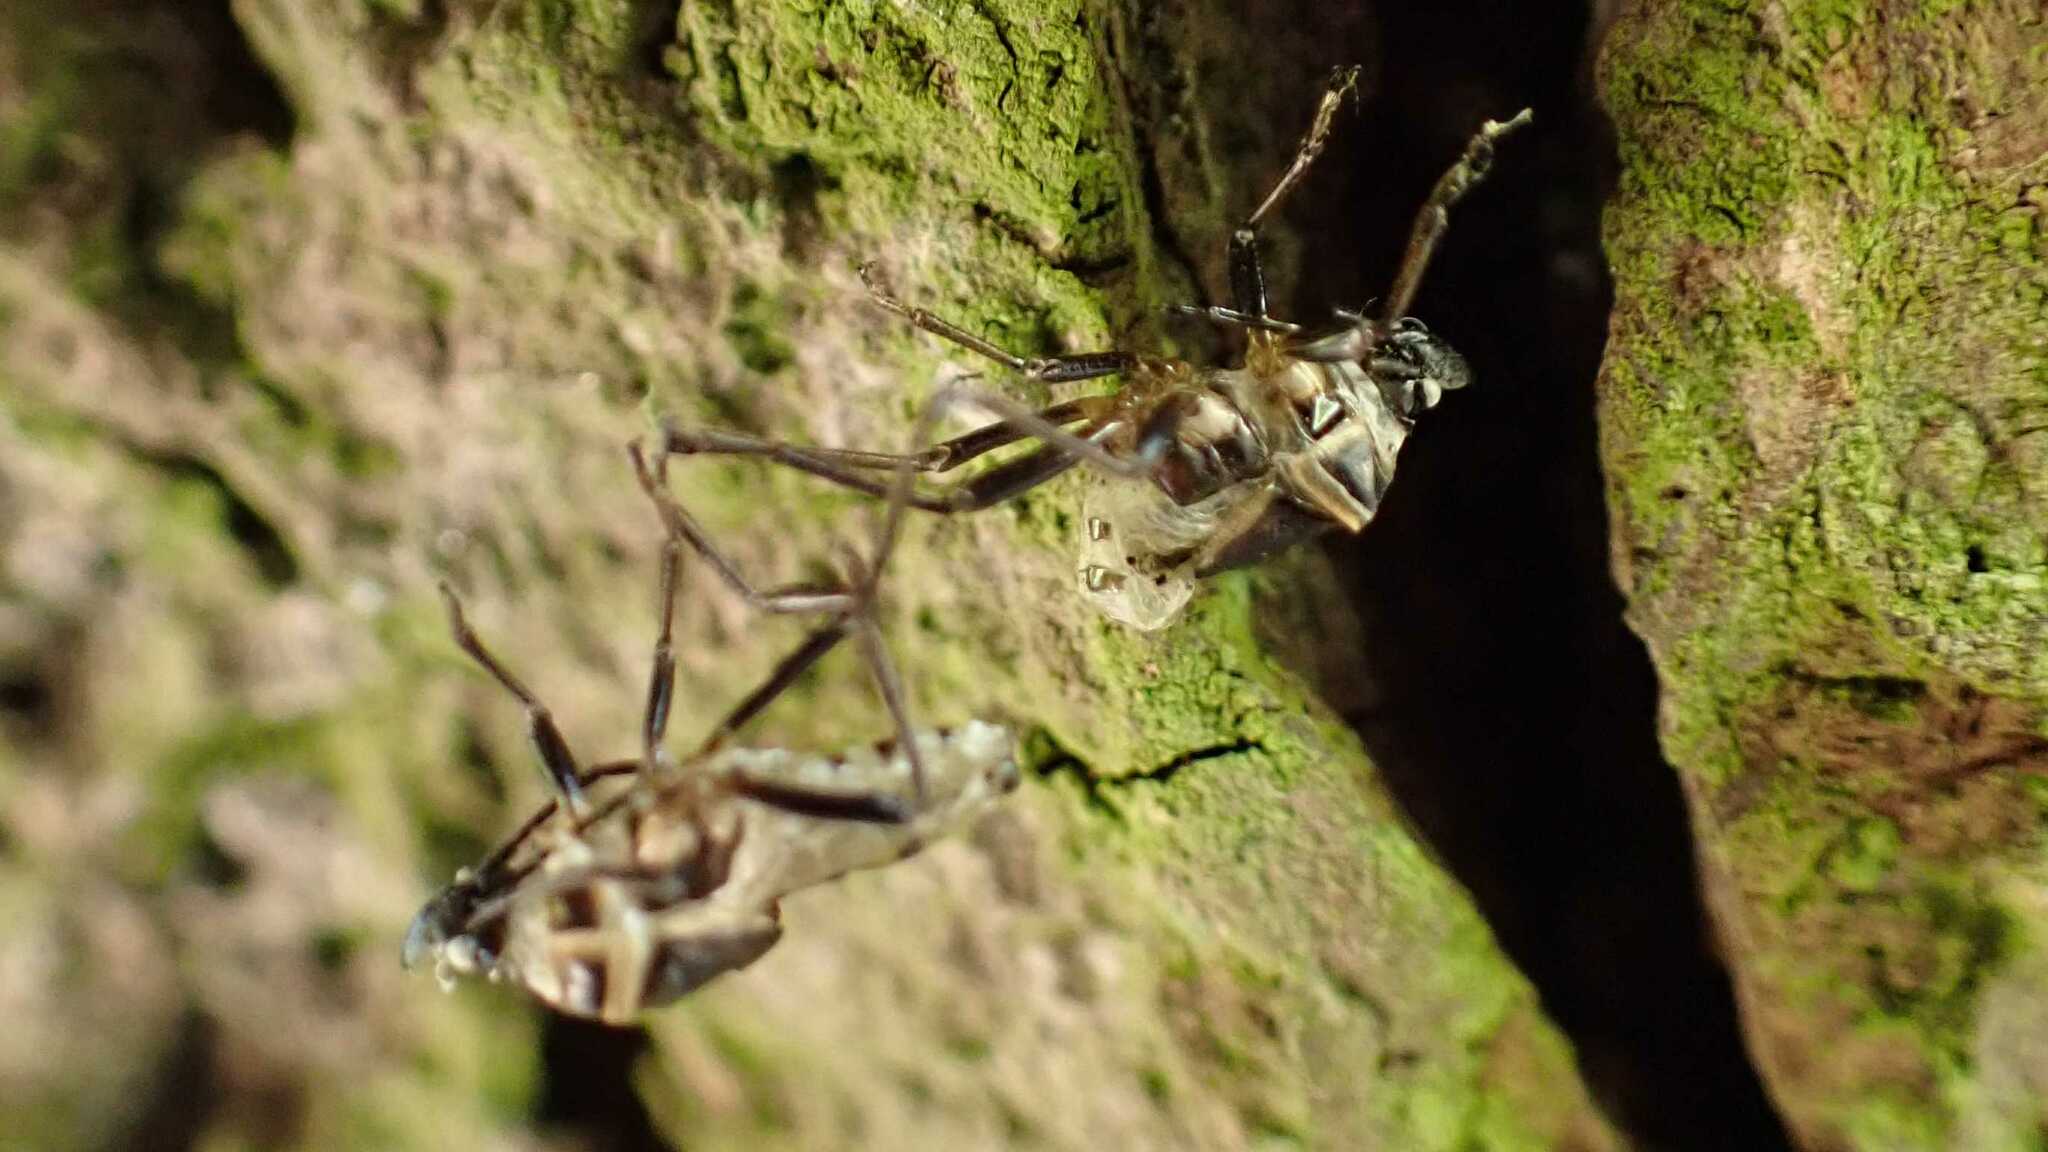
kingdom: Animalia
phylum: Arthropoda
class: Insecta
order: Hemiptera
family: Pyrrhocoridae
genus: Pyrrhocoris
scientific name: Pyrrhocoris apterus
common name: Firebug
